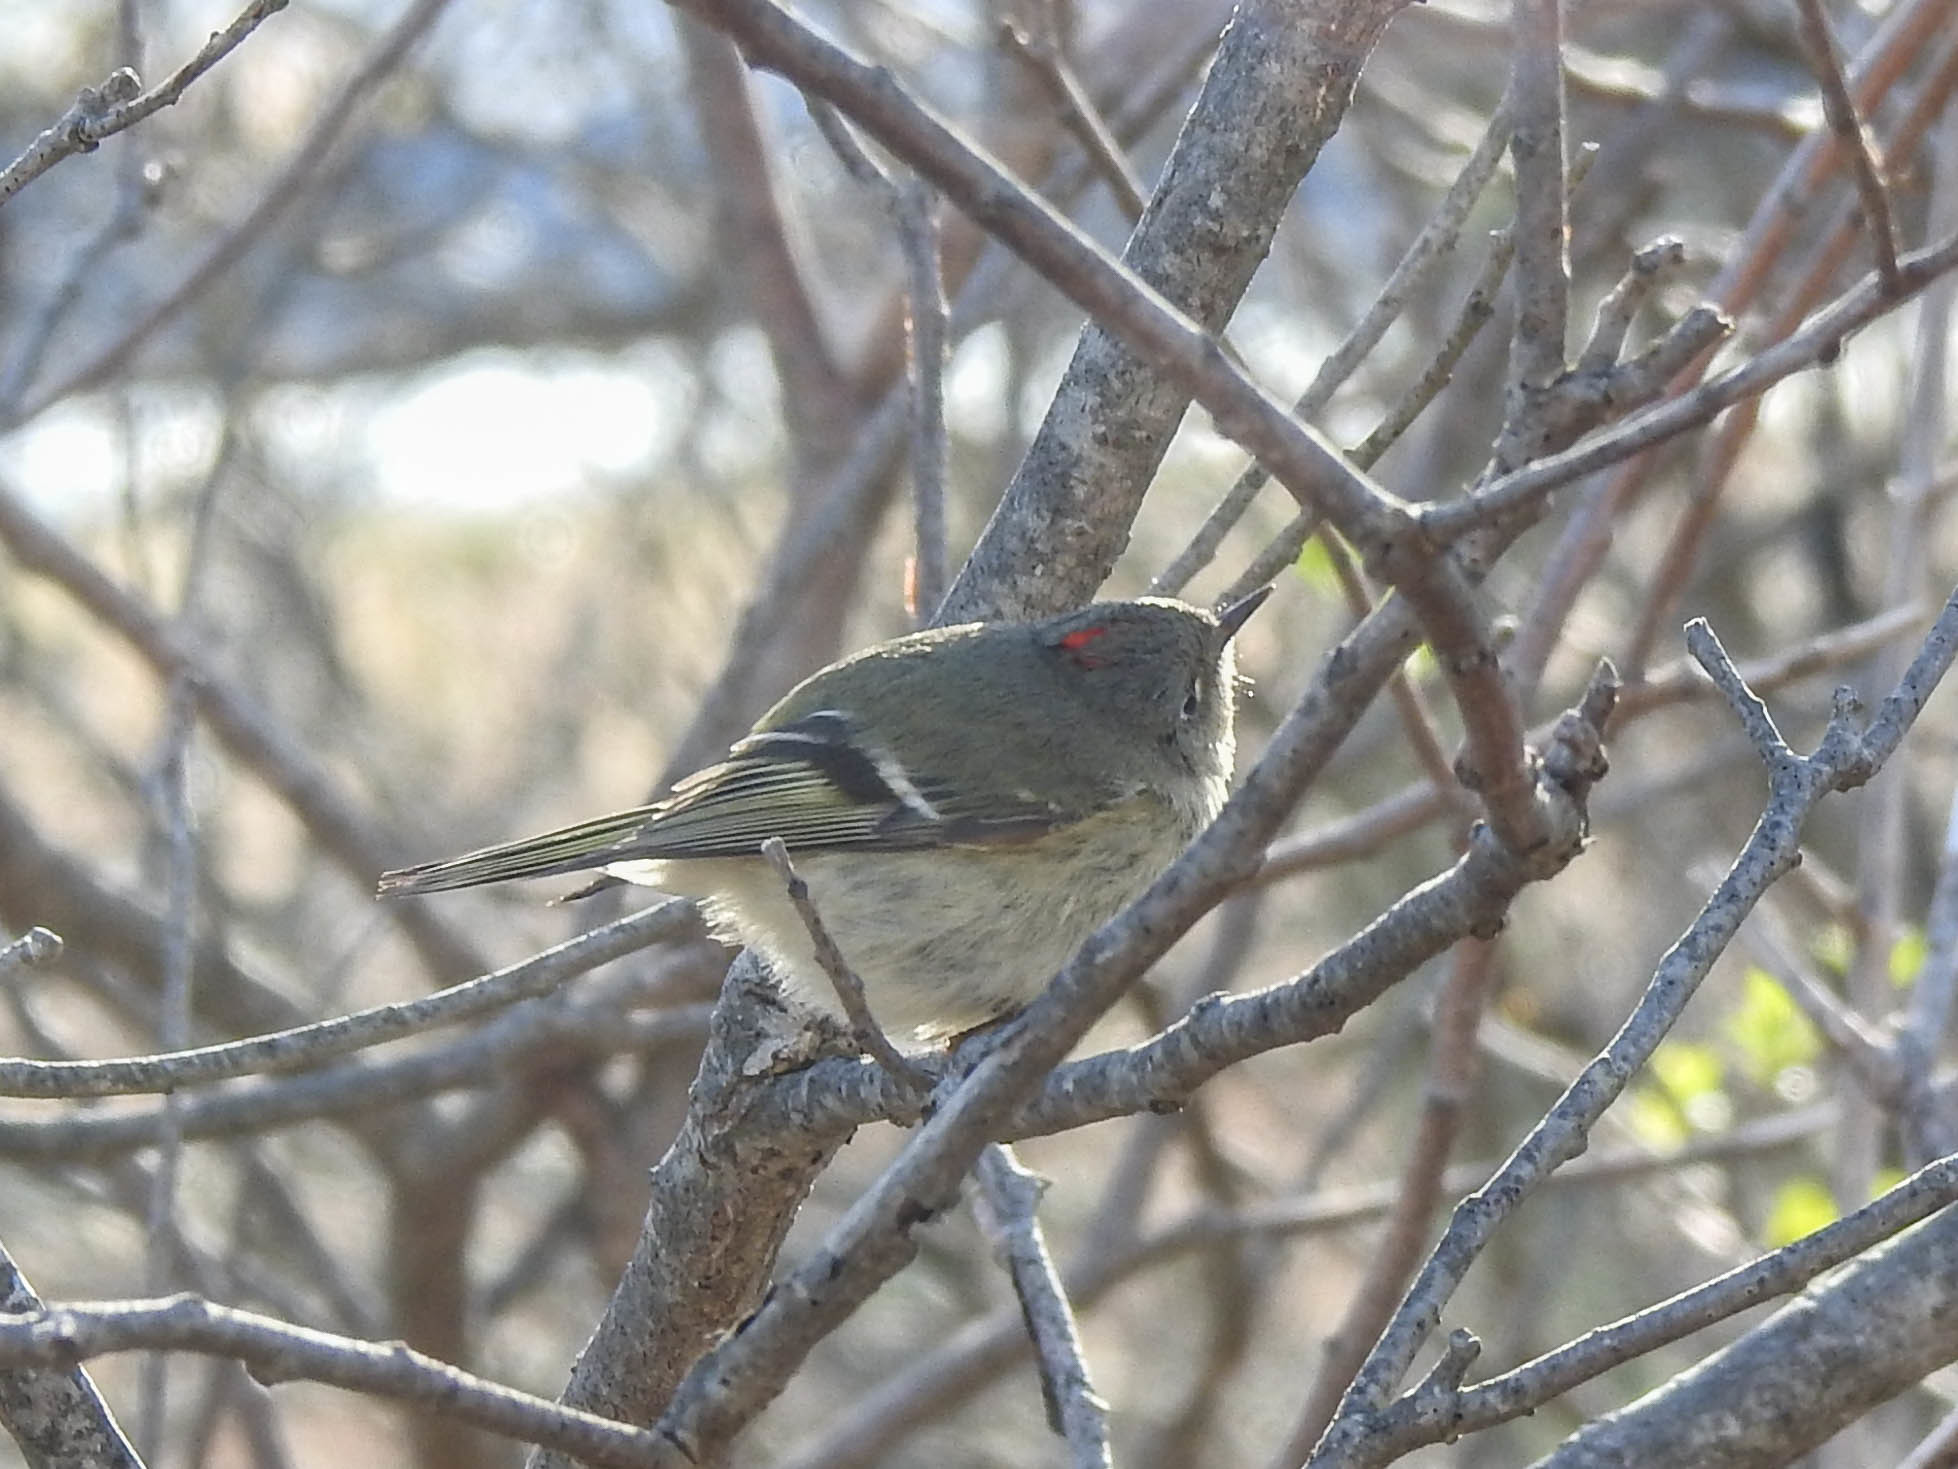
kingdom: Animalia
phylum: Chordata
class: Aves
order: Passeriformes
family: Regulidae
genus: Regulus
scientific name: Regulus calendula
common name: Ruby-crowned kinglet
